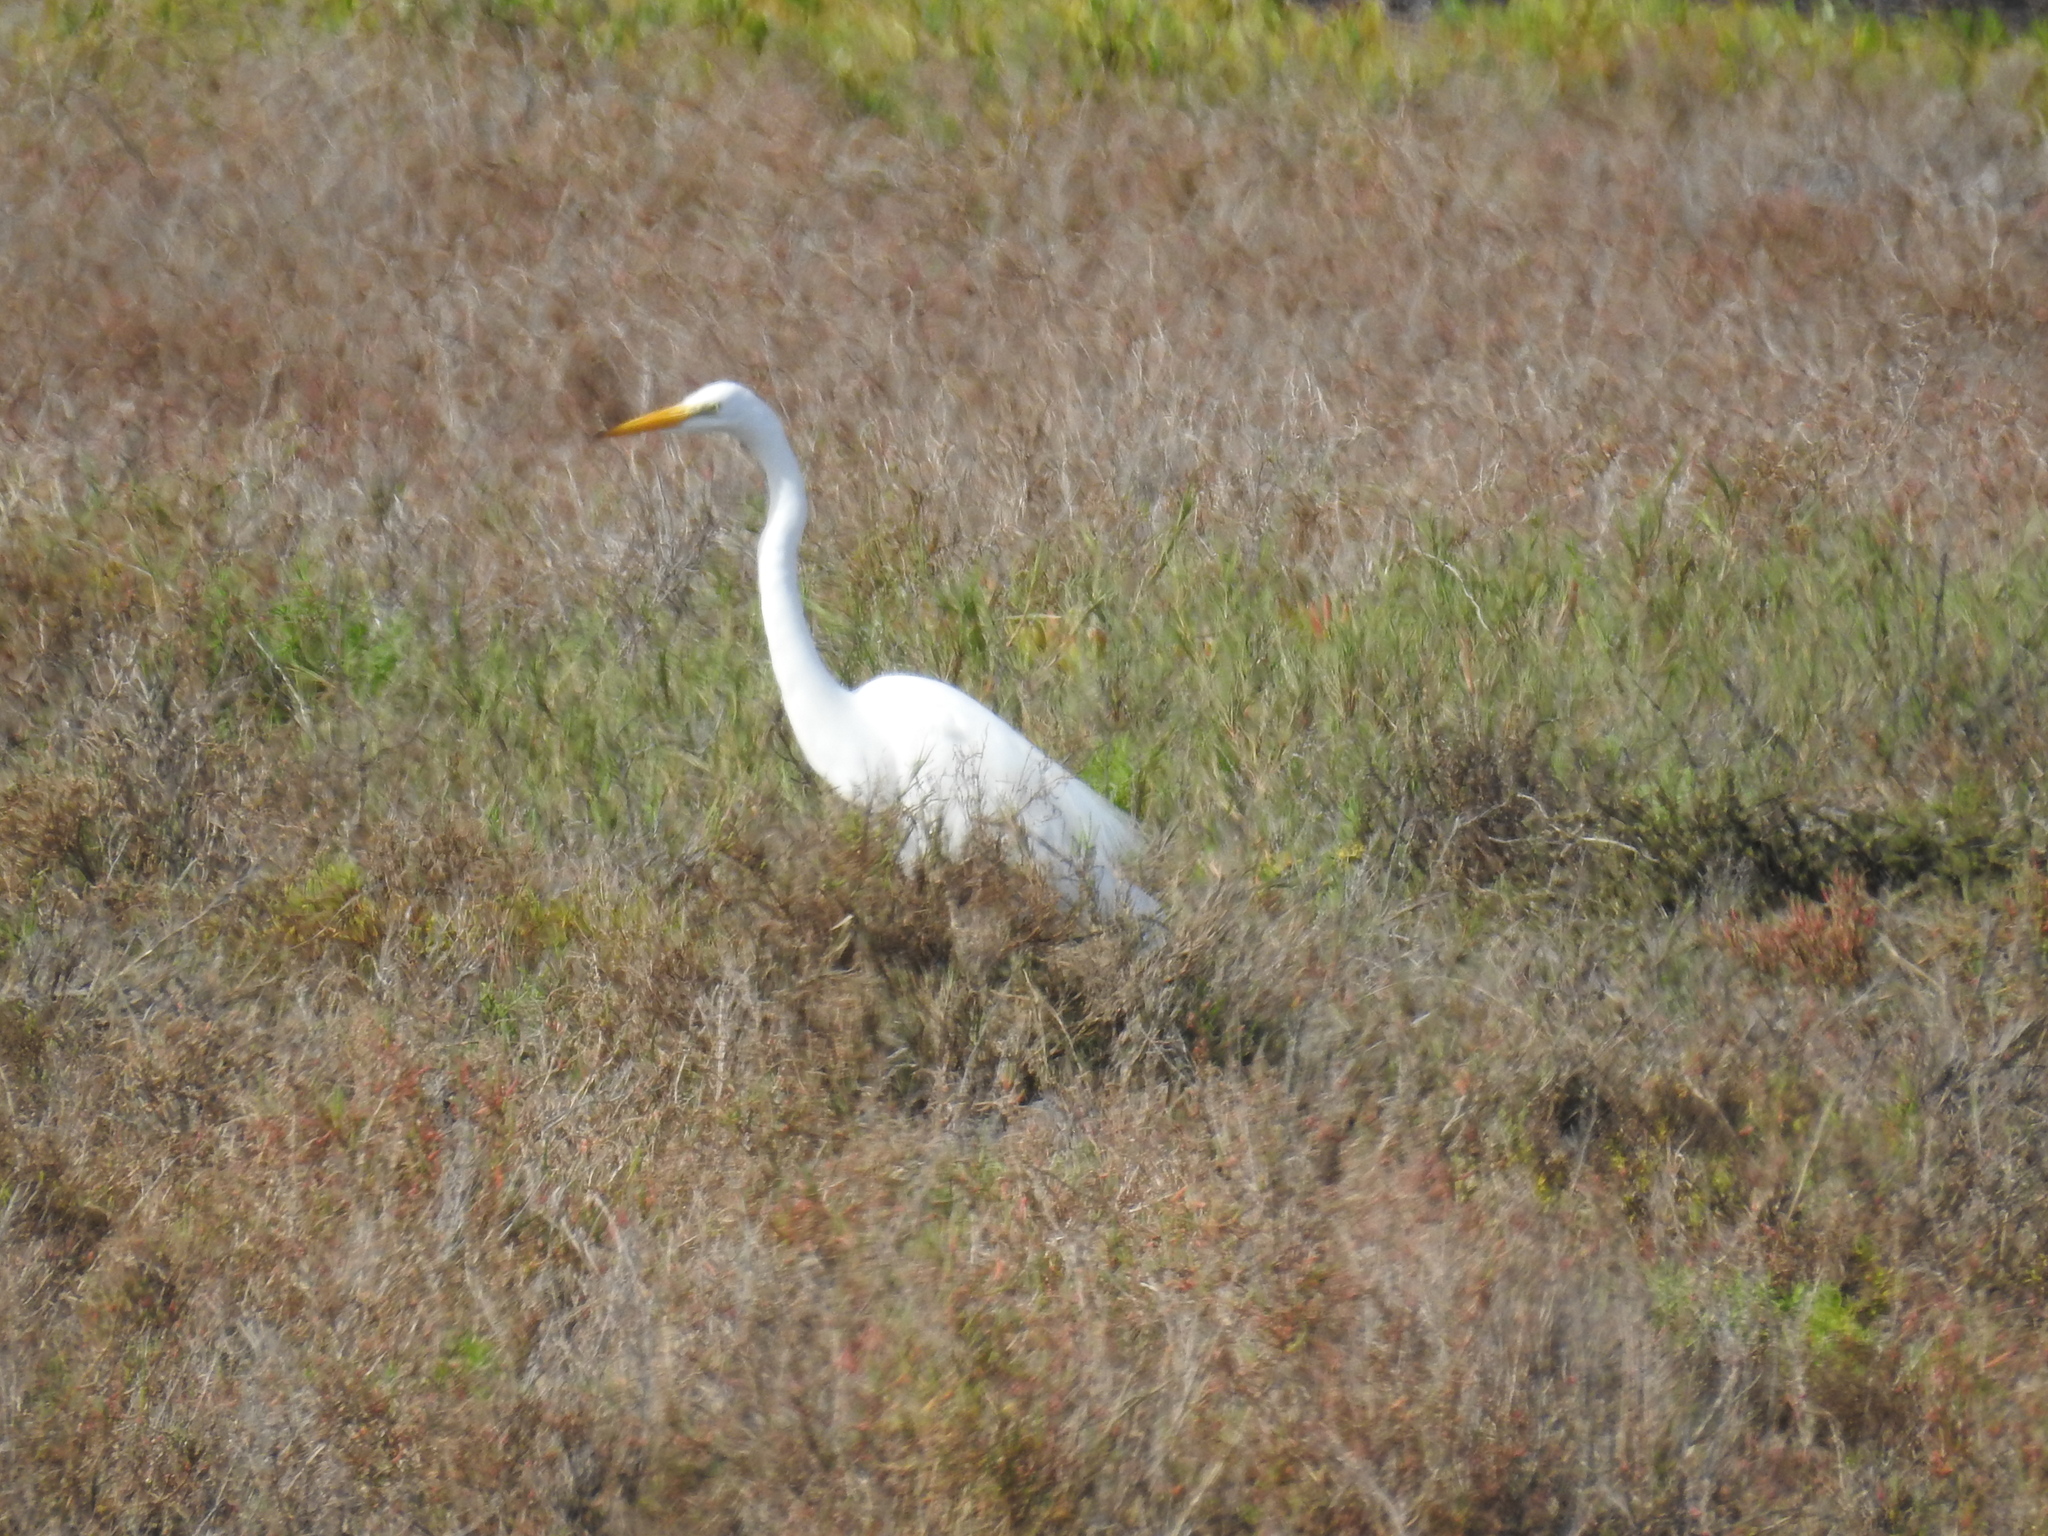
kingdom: Animalia
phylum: Chordata
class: Aves
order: Pelecaniformes
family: Ardeidae
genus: Ardea
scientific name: Ardea alba
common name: Great egret
